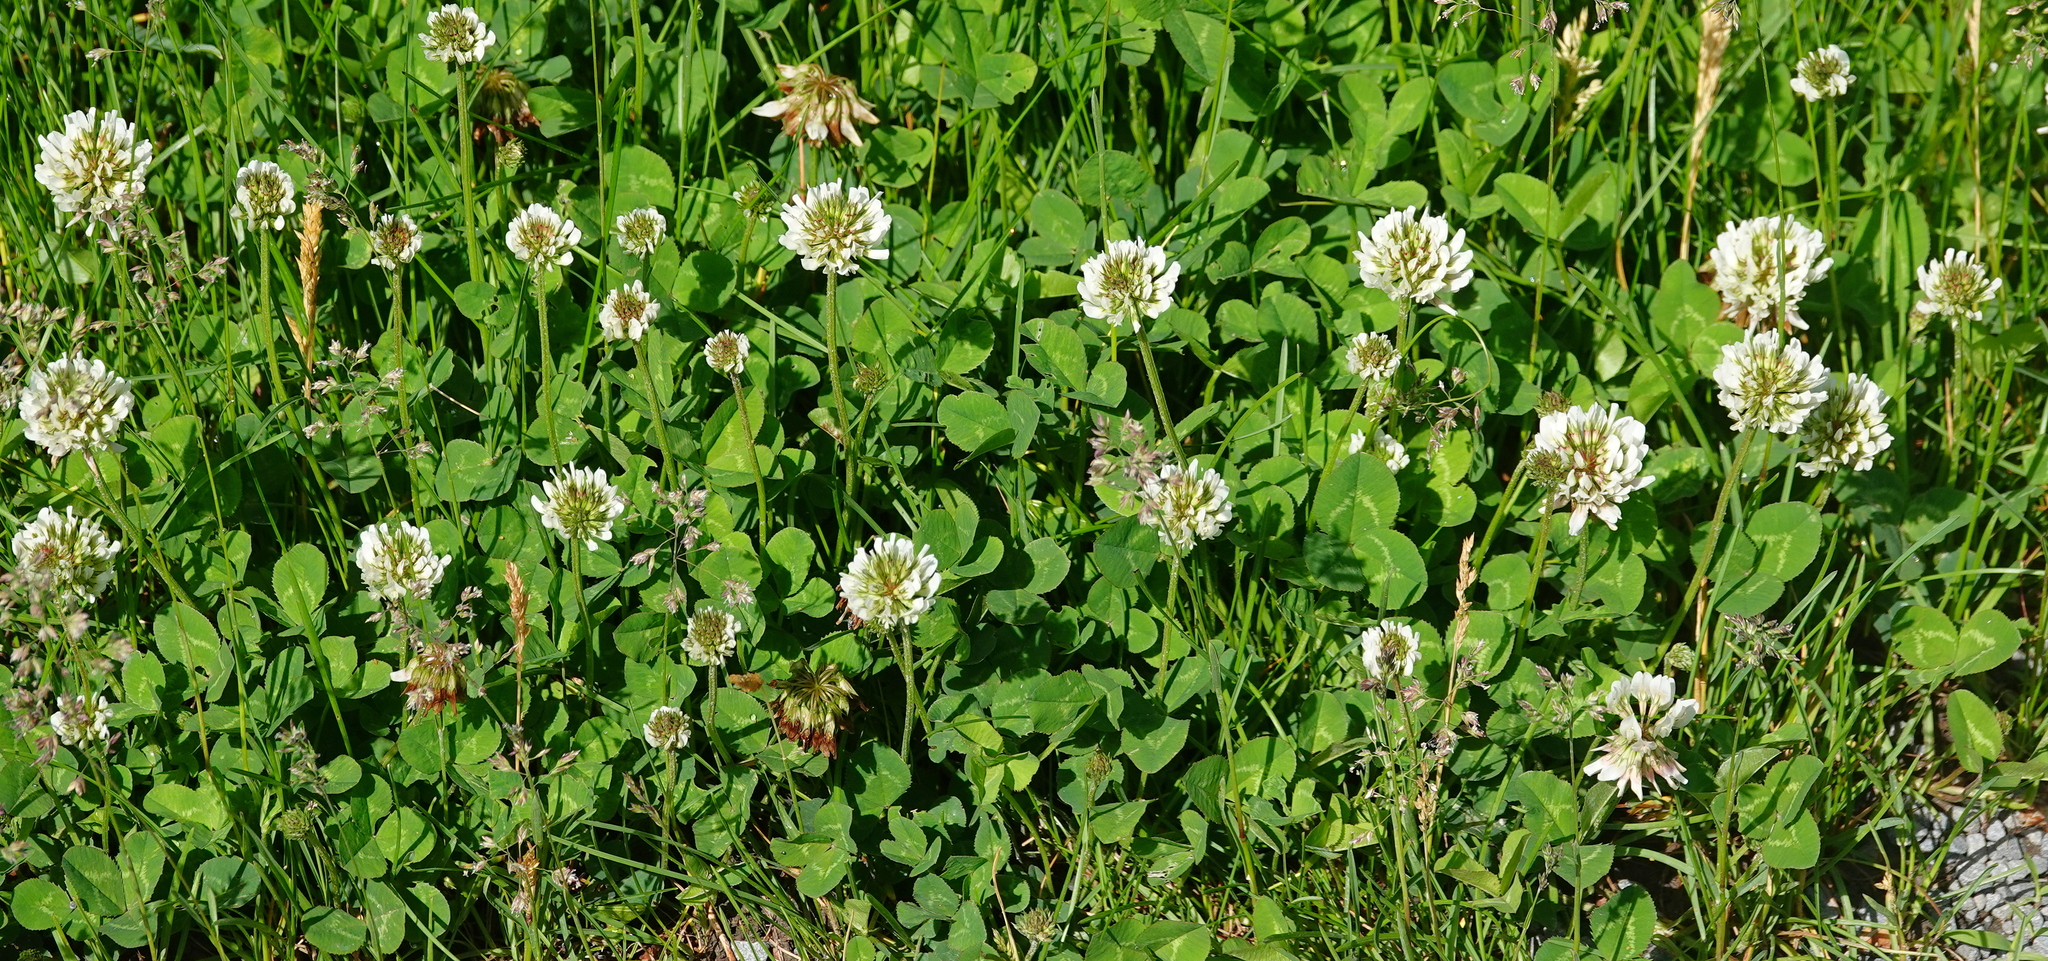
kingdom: Plantae
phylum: Tracheophyta
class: Magnoliopsida
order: Fabales
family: Fabaceae
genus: Trifolium
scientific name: Trifolium repens
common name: White clover
